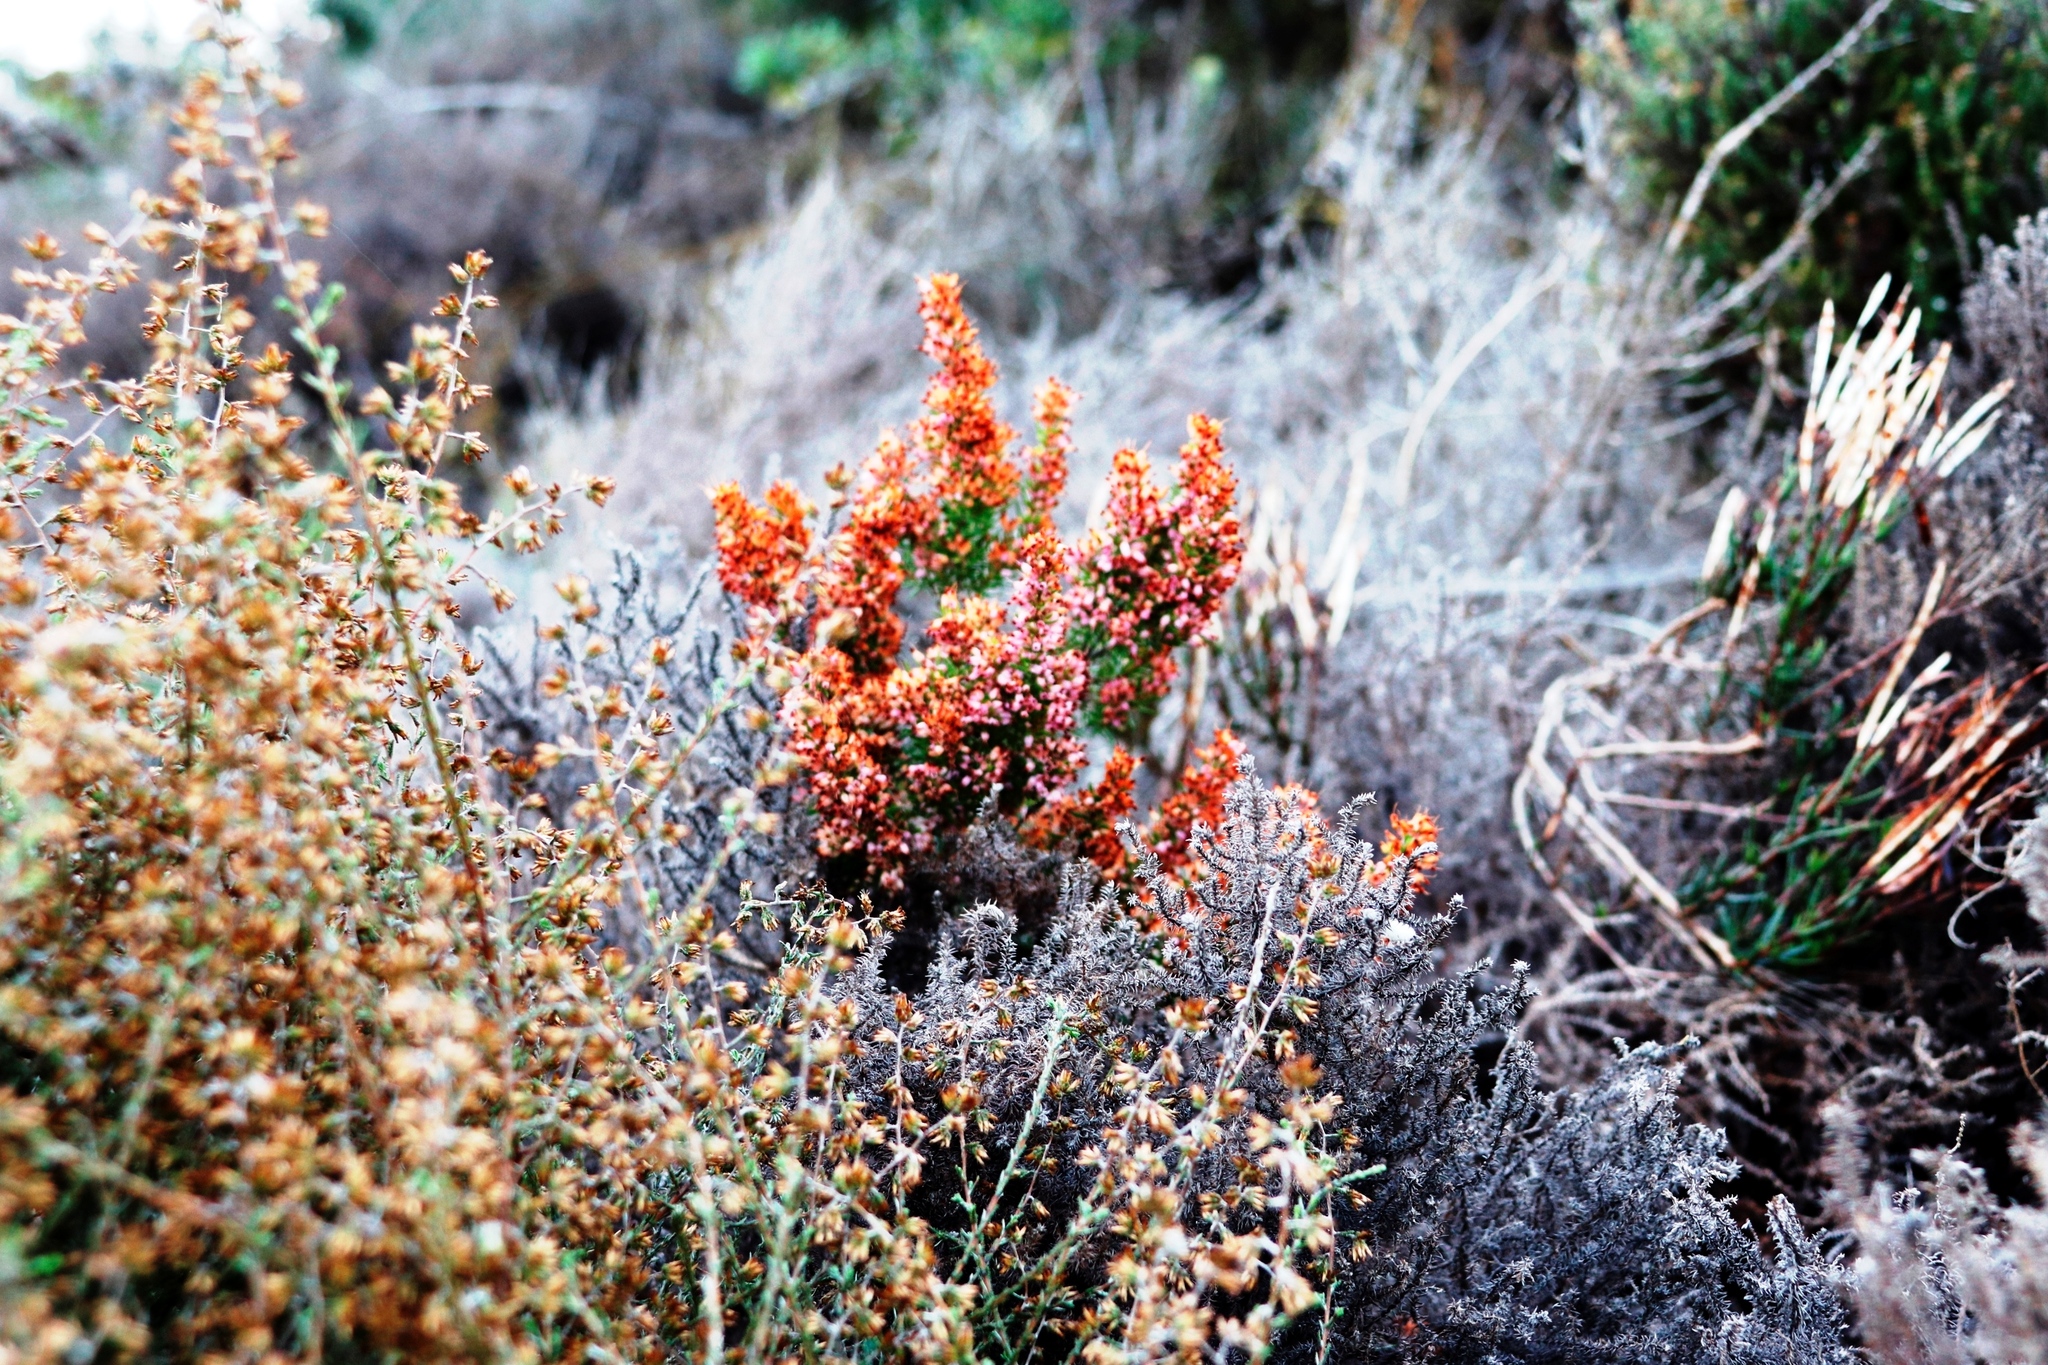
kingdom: Plantae
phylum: Tracheophyta
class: Magnoliopsida
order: Ericales
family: Ericaceae
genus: Erica
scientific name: Erica nudiflora
